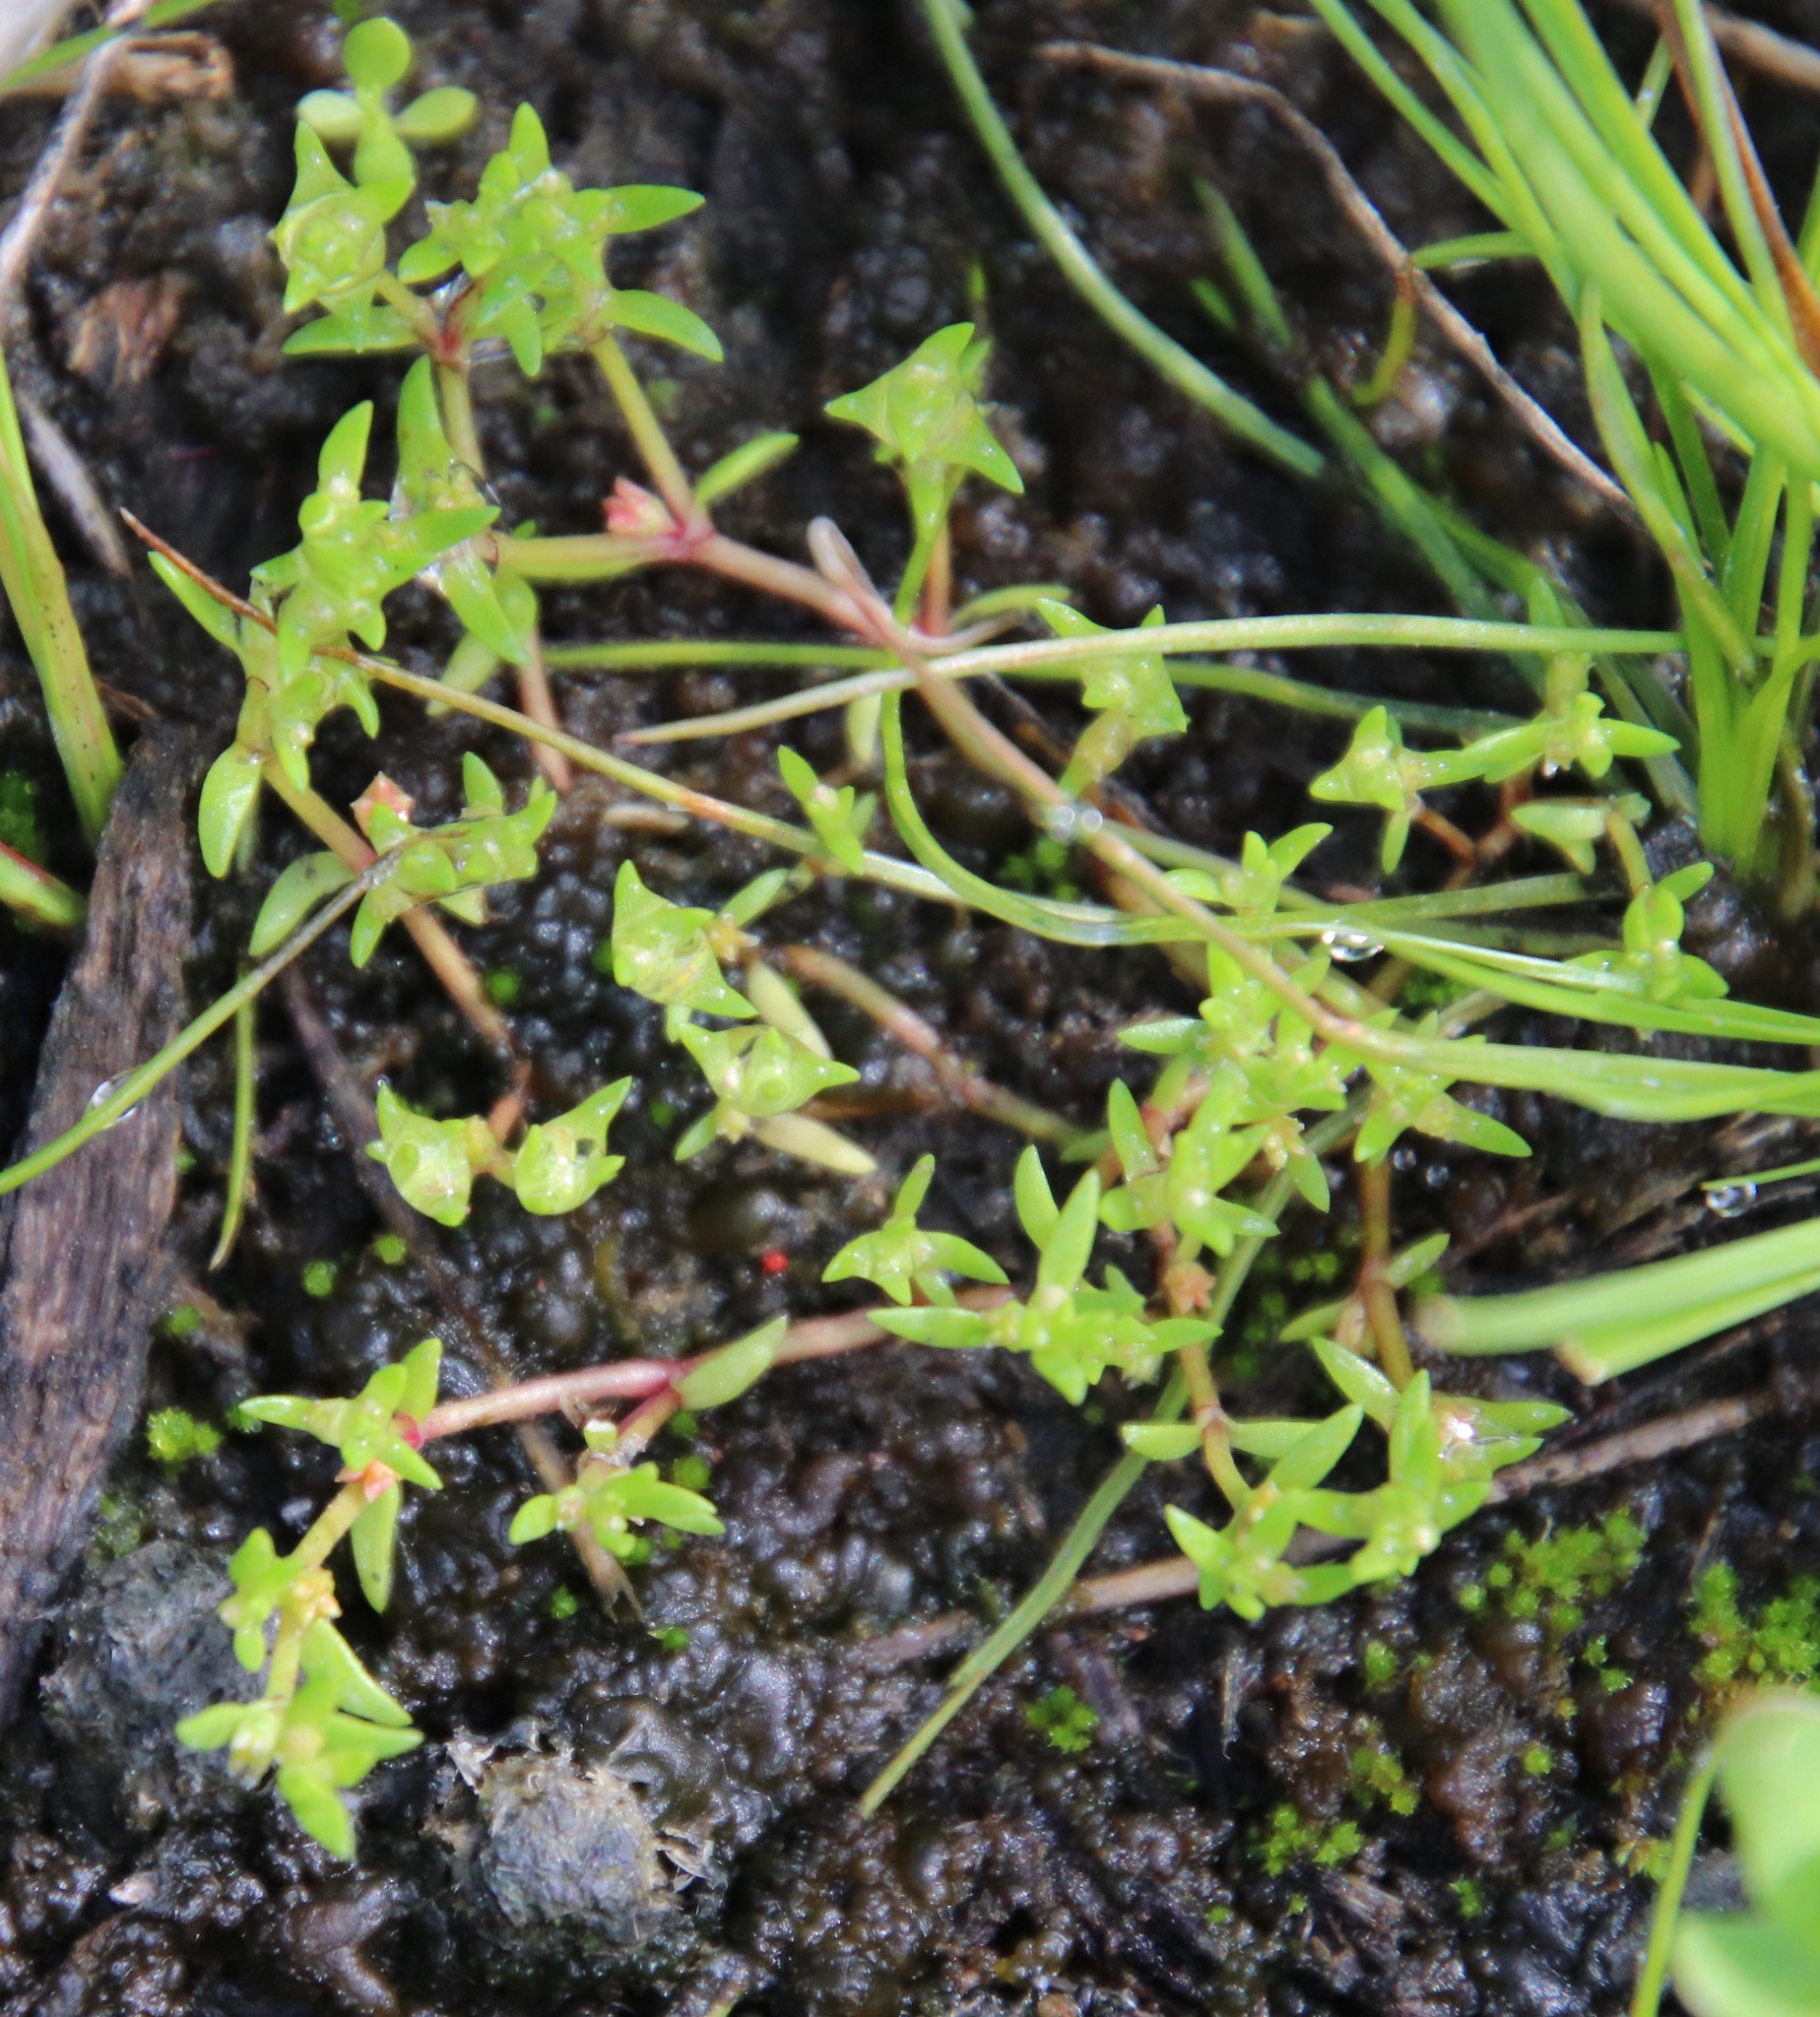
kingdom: Plantae
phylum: Tracheophyta
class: Magnoliopsida
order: Saxifragales
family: Crassulaceae
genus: Crassula
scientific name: Crassula aquatica
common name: Pigmyweed
